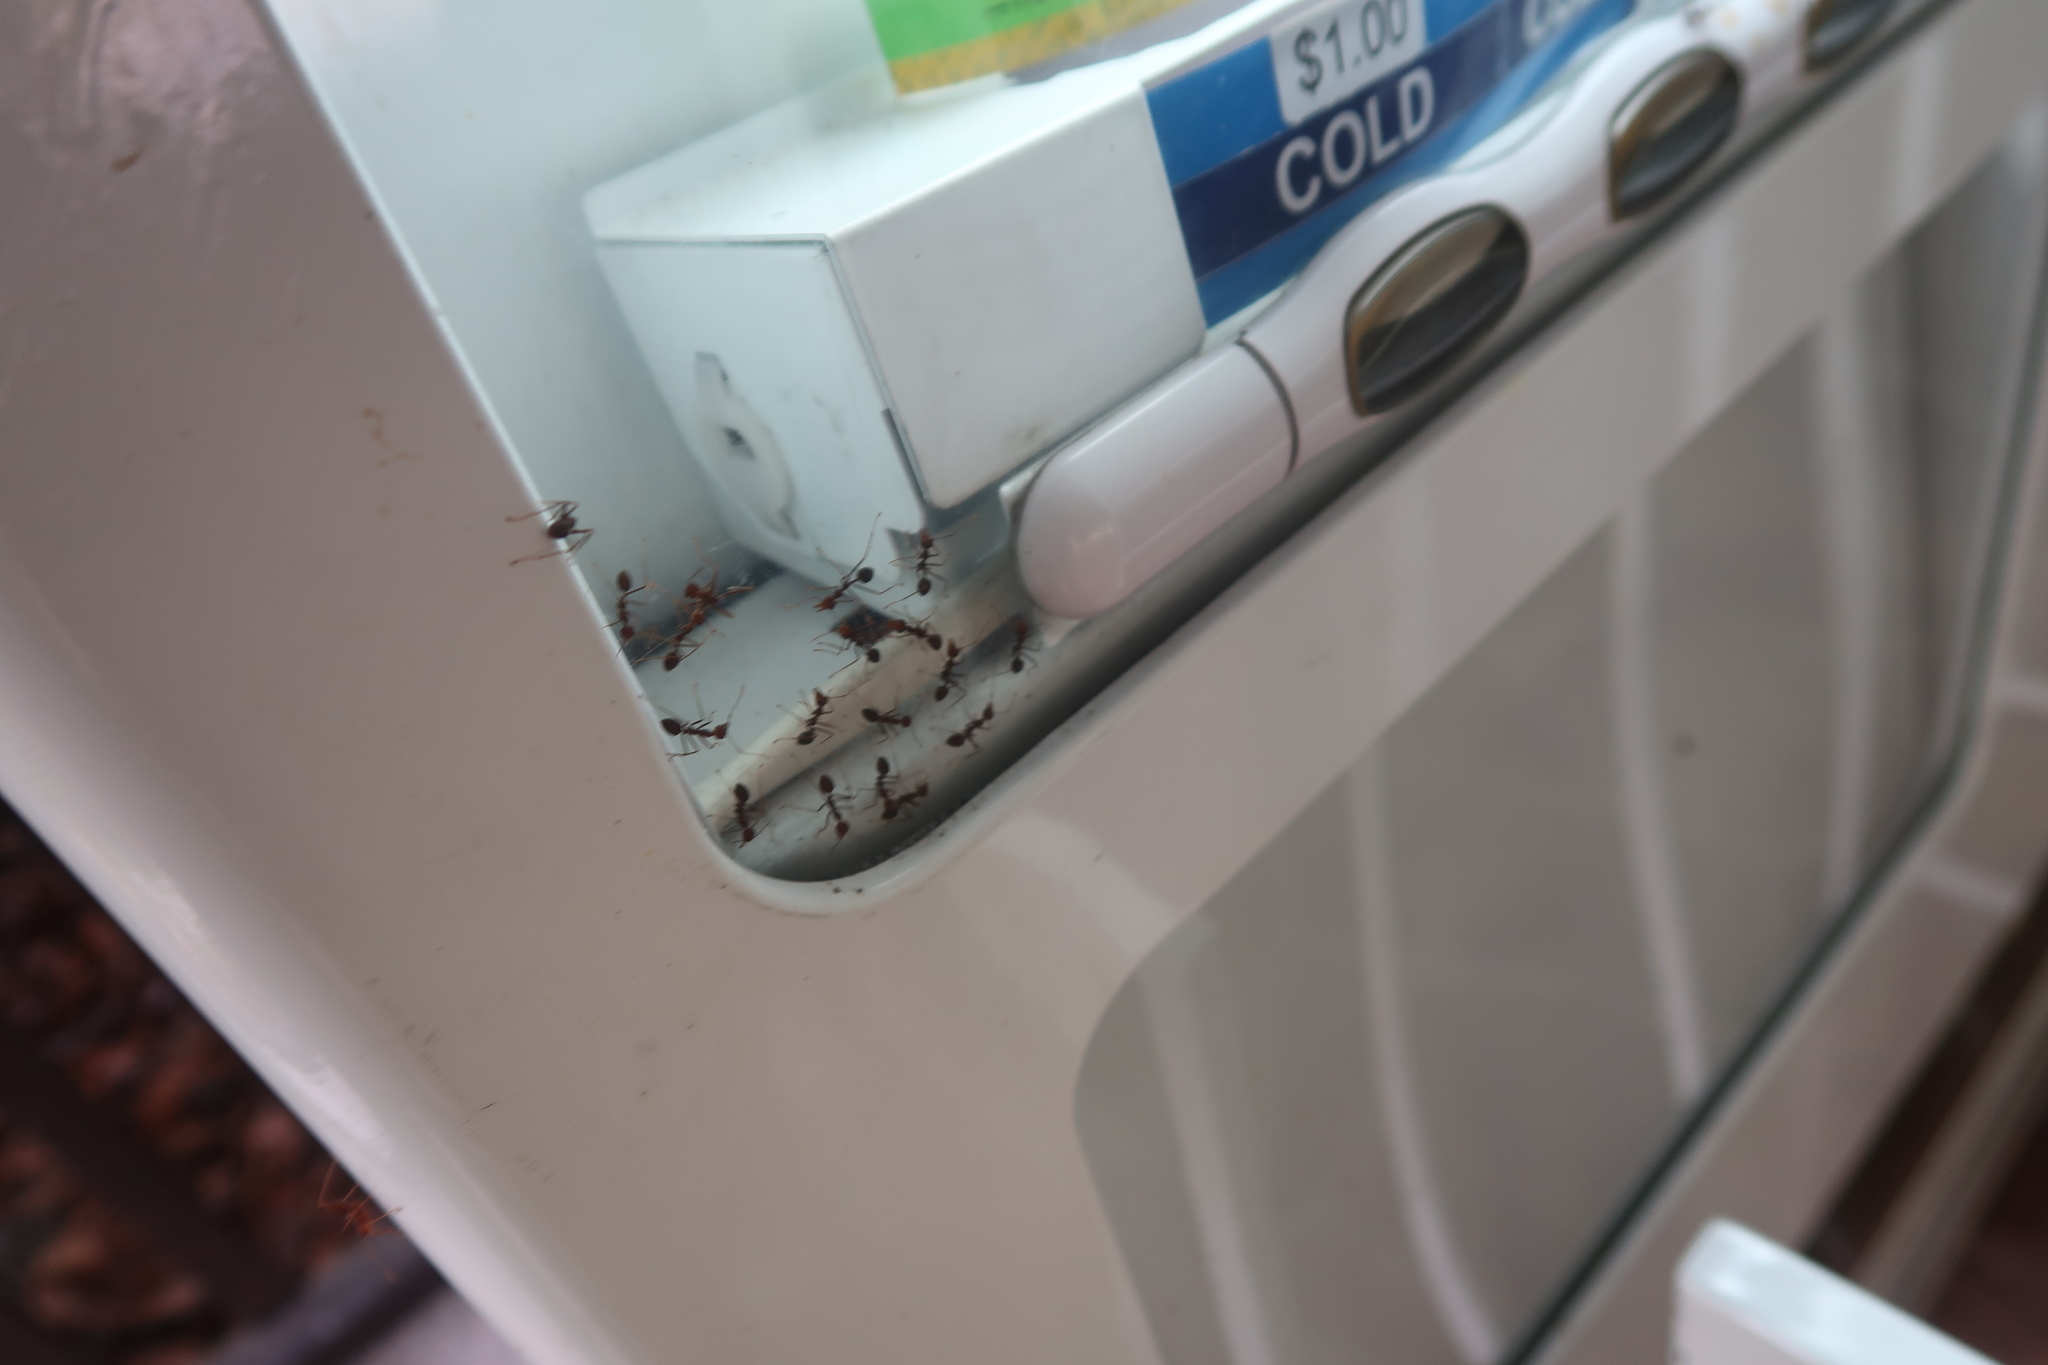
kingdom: Animalia
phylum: Arthropoda
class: Insecta
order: Hymenoptera
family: Formicidae
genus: Oecophylla
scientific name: Oecophylla smaragdina
